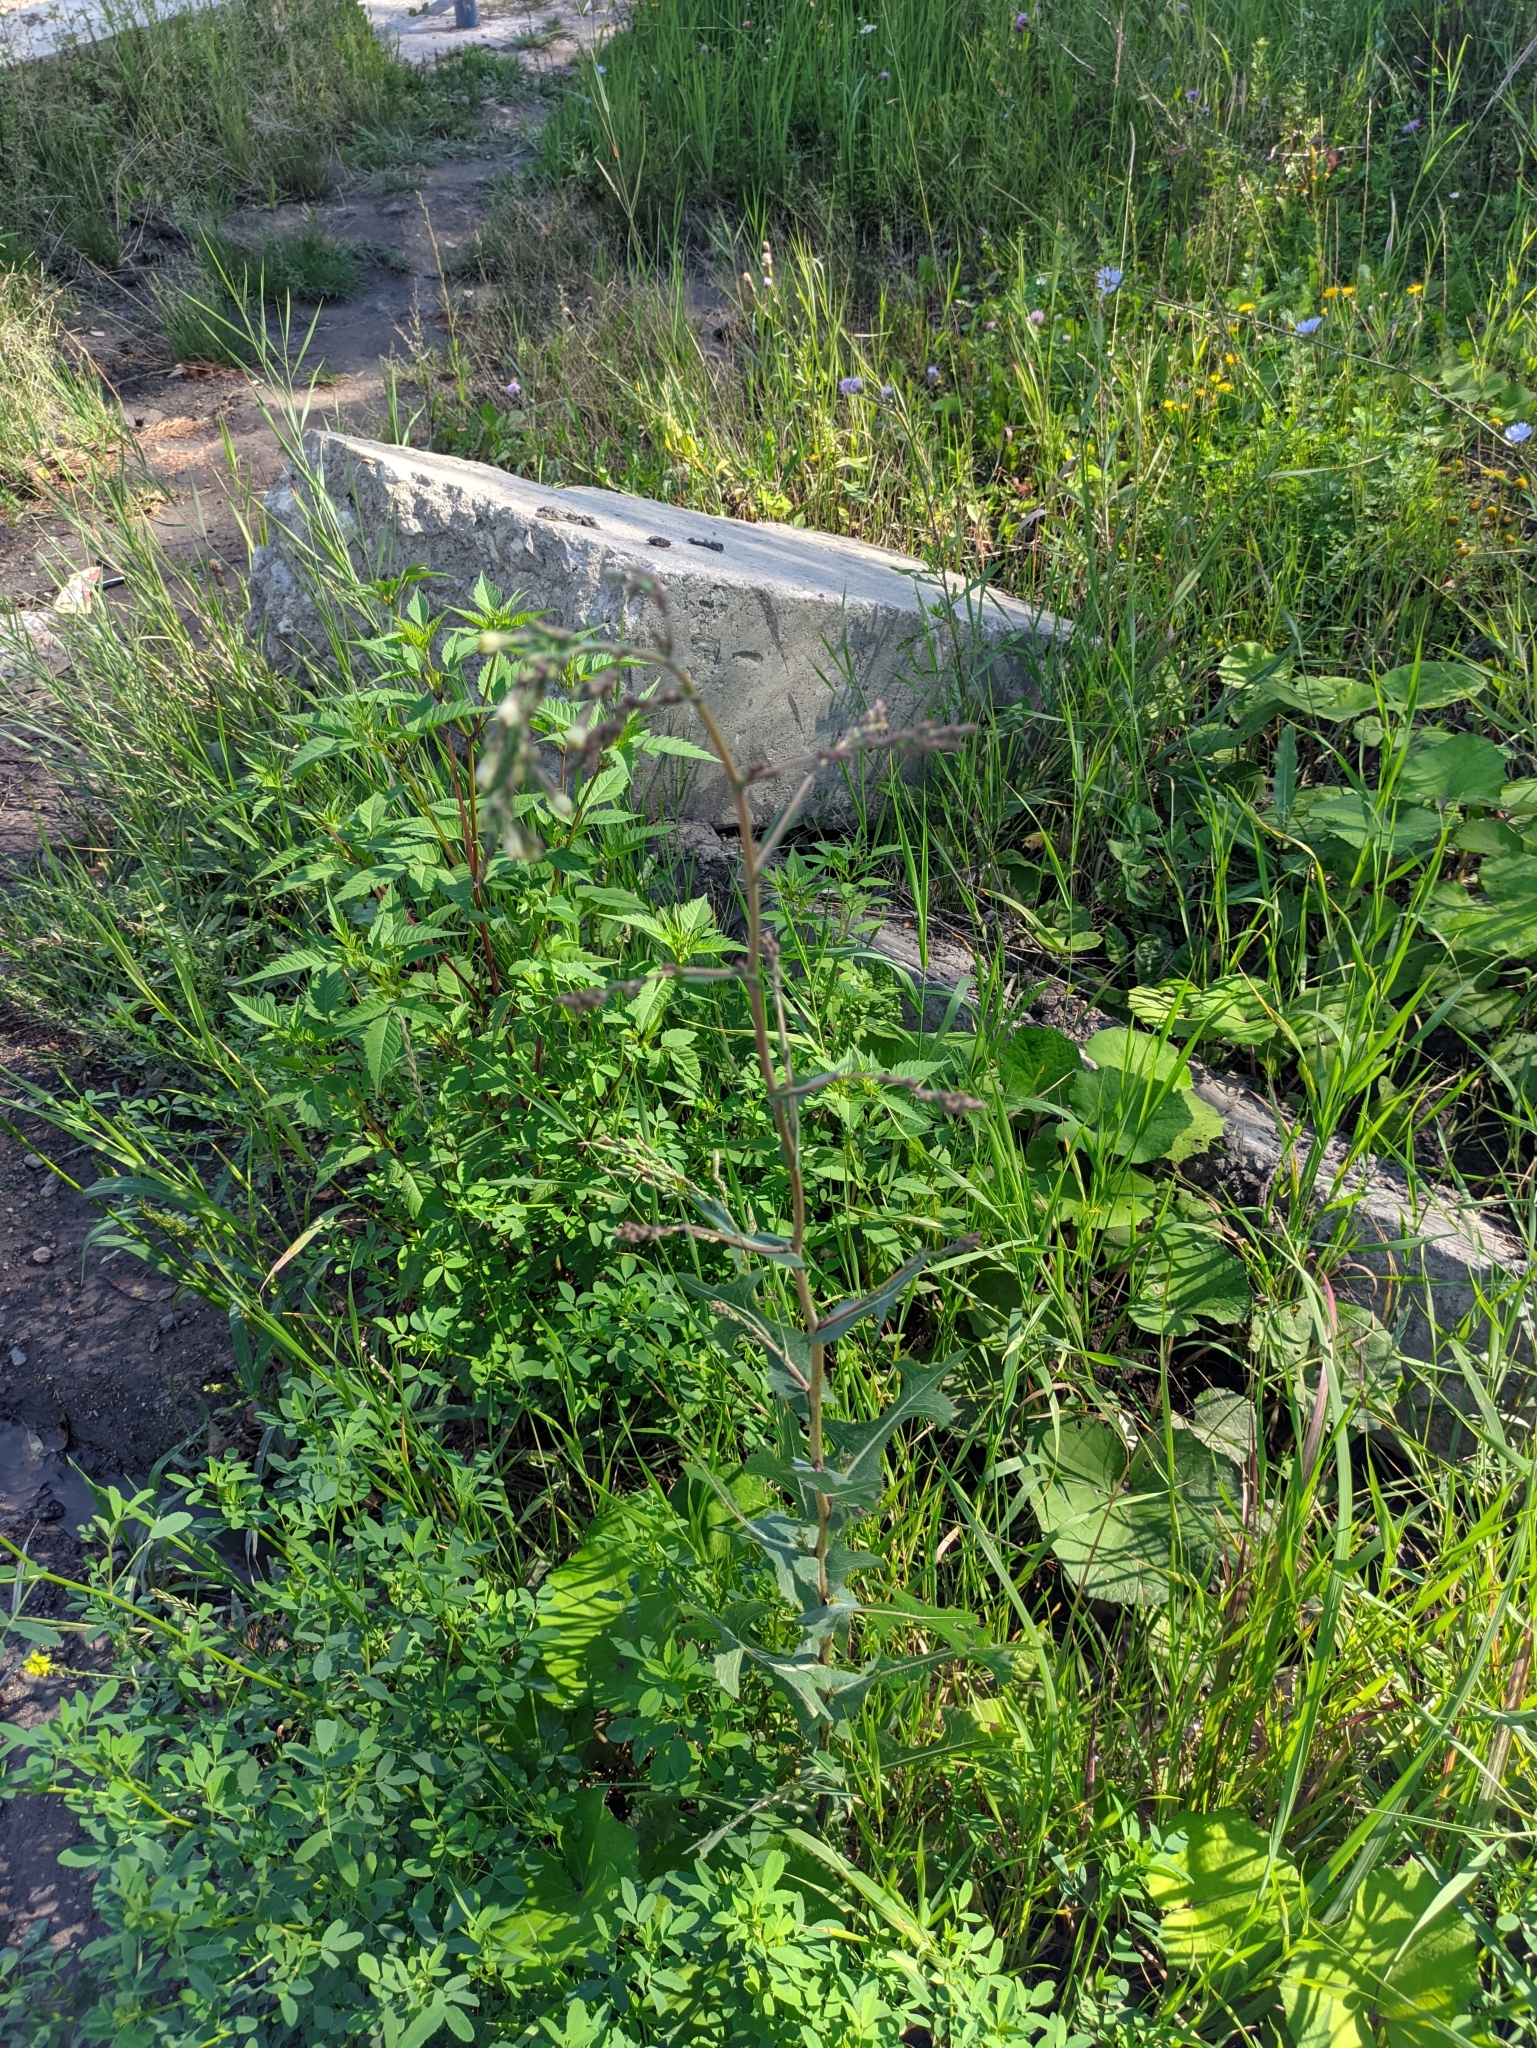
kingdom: Plantae
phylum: Tracheophyta
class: Magnoliopsida
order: Asterales
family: Asteraceae
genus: Lactuca
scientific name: Lactuca serriola
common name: Prickly lettuce
